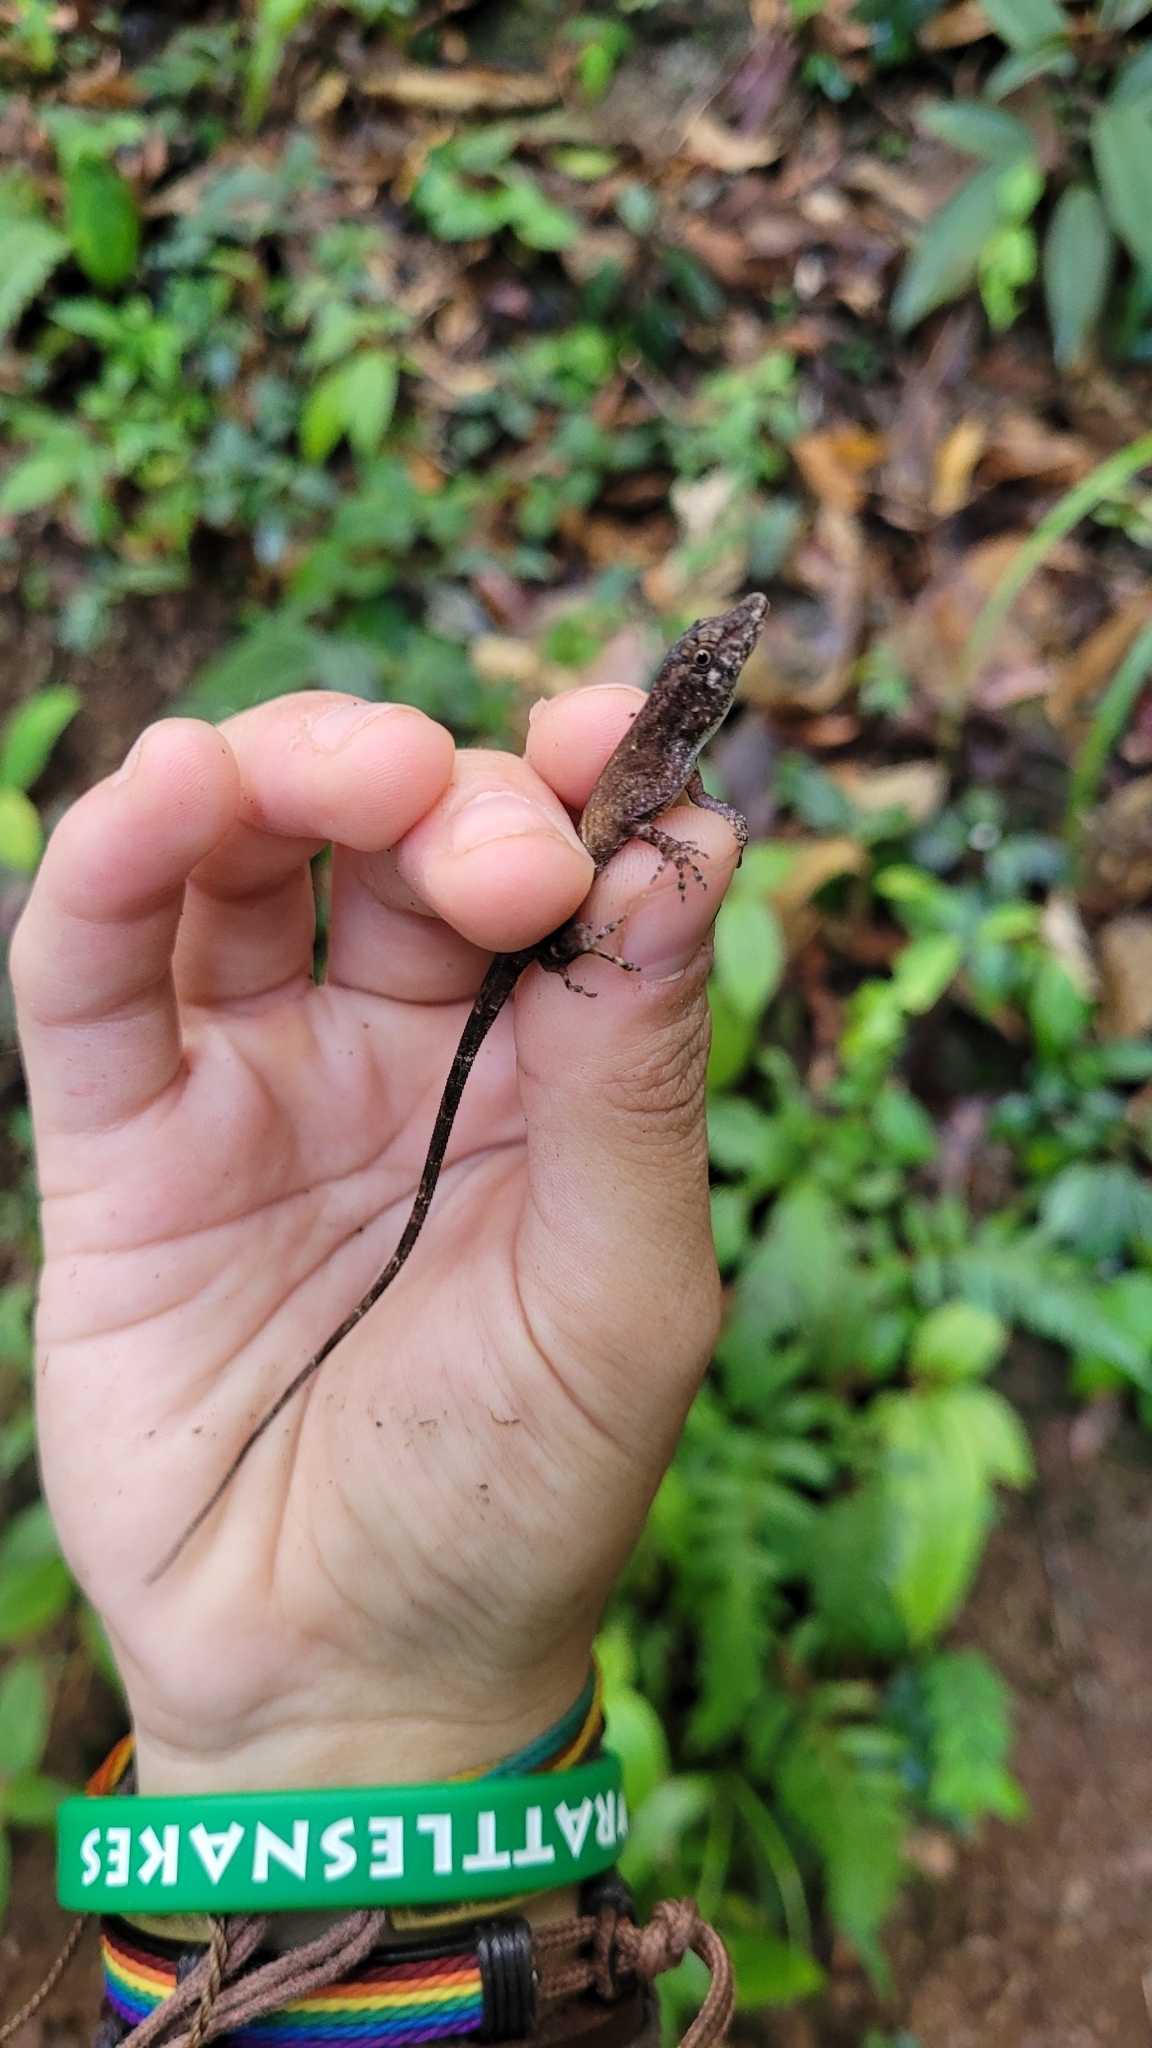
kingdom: Animalia
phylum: Chordata
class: Squamata
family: Dactyloidae
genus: Anolis
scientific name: Anolis zeus
